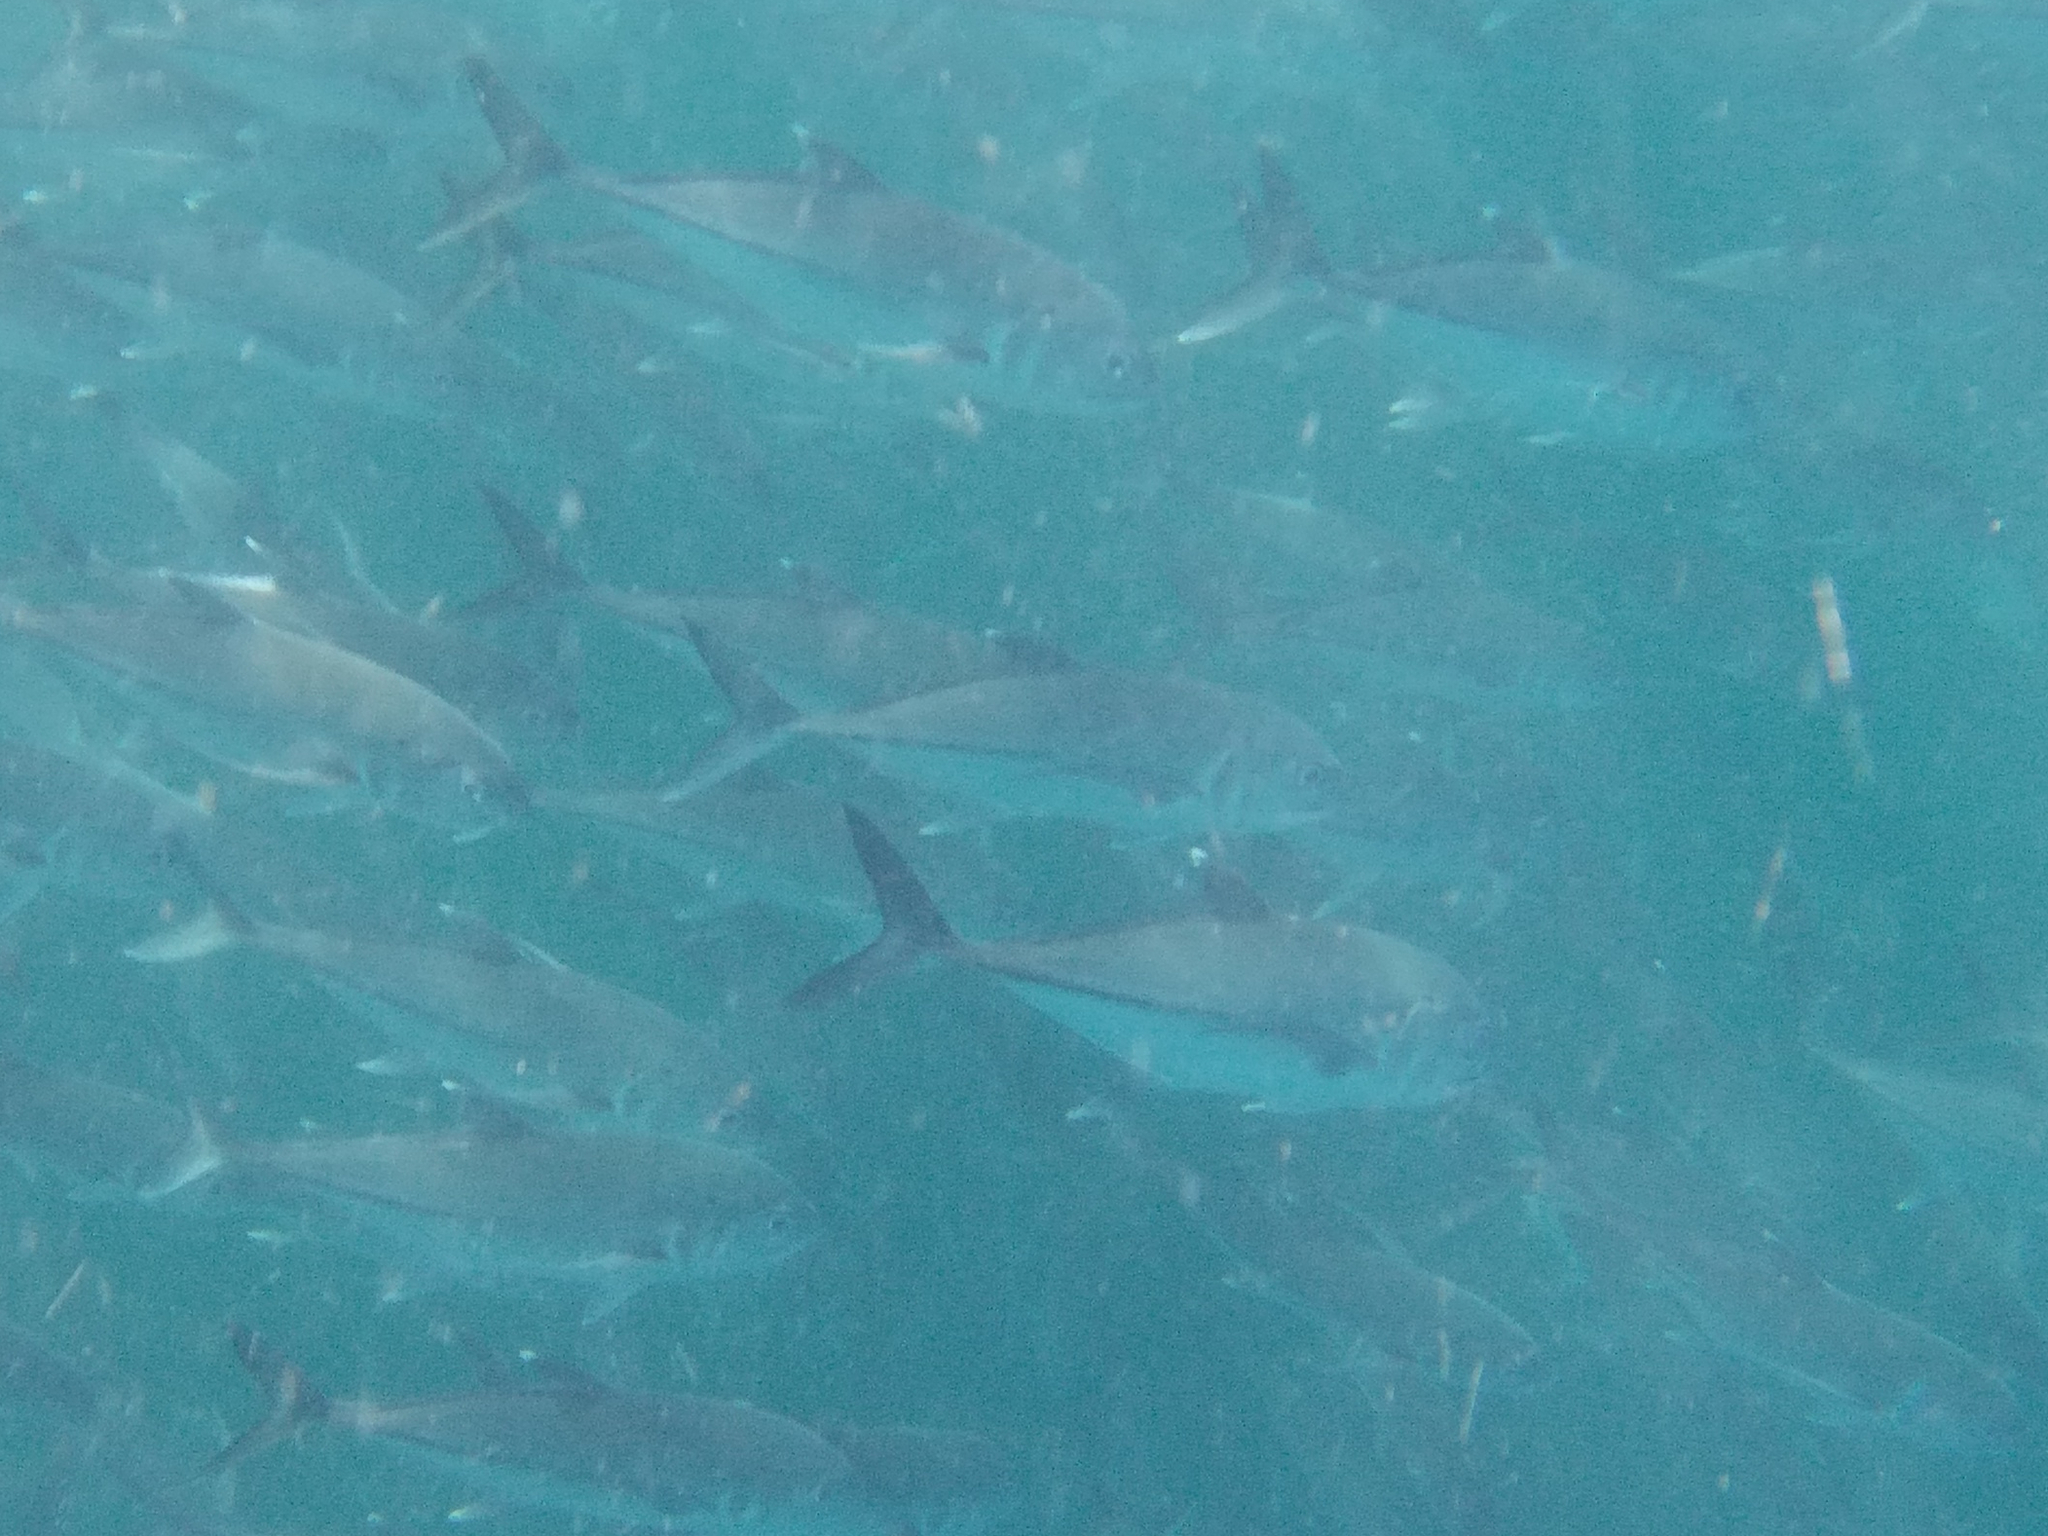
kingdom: Animalia
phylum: Chordata
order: Perciformes
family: Carangidae
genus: Caranx
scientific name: Caranx sexfasciatus
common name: Bigeye trevally
